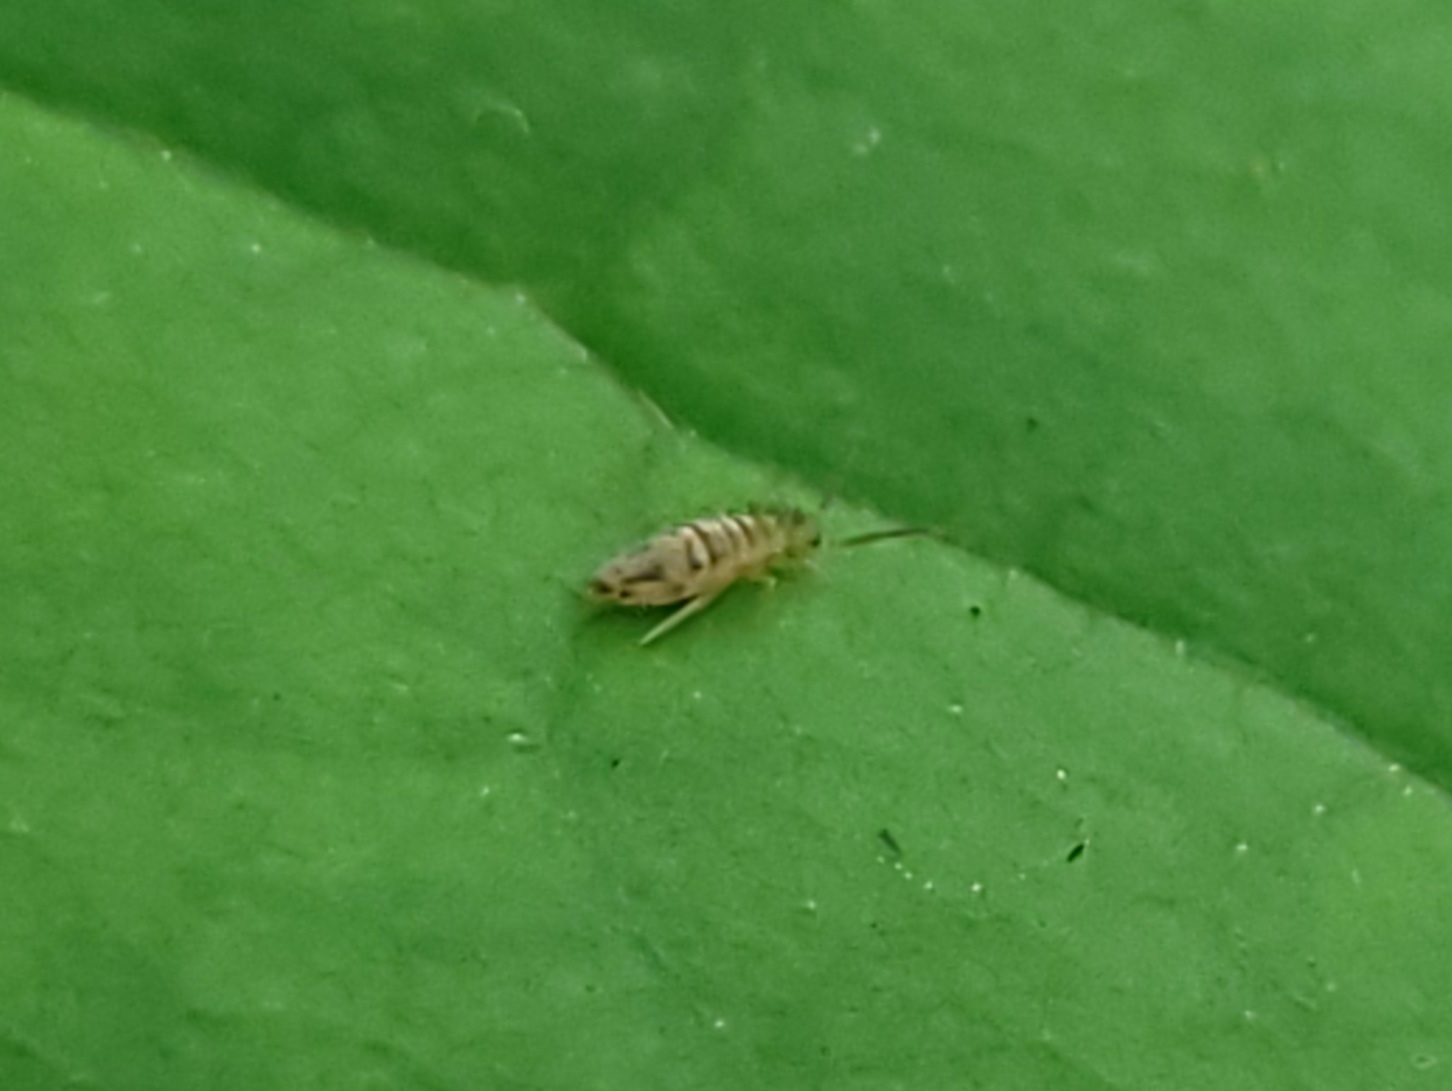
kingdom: Animalia
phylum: Arthropoda
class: Collembola
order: Entomobryomorpha
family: Entomobryidae
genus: Entomobrya
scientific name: Entomobrya nivalis
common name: Cosmopolitan springtail
